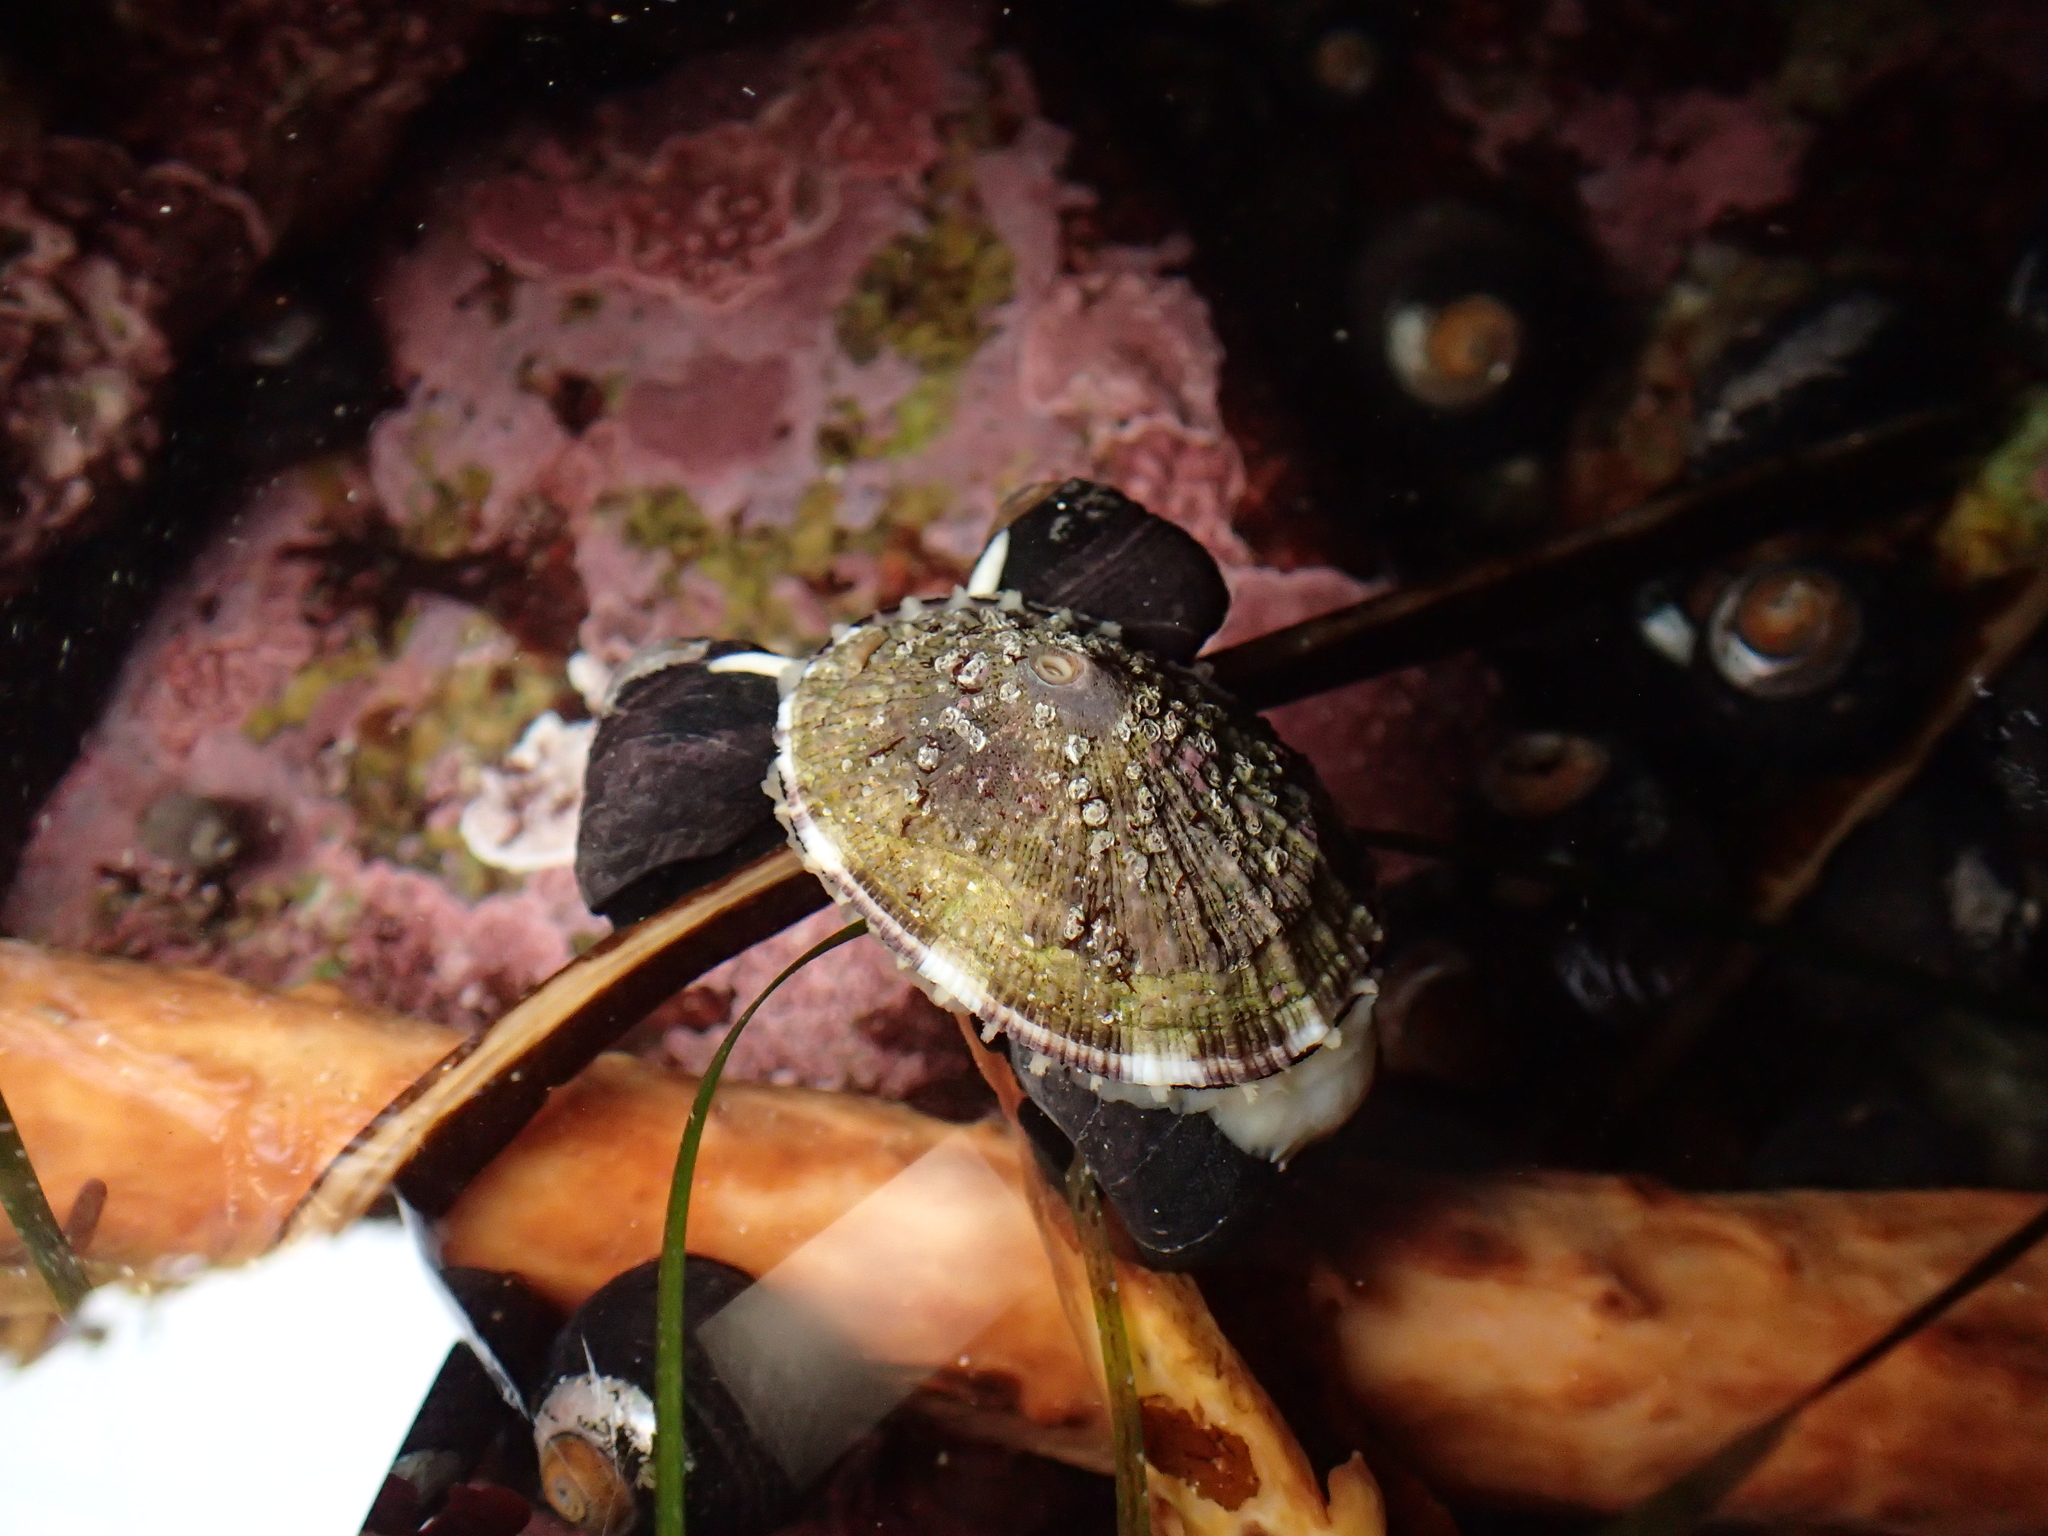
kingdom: Animalia
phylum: Mollusca
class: Gastropoda
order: Lepetellida
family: Fissurellidae
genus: Diodora
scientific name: Diodora aspera
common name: Rough keyhole limpet
